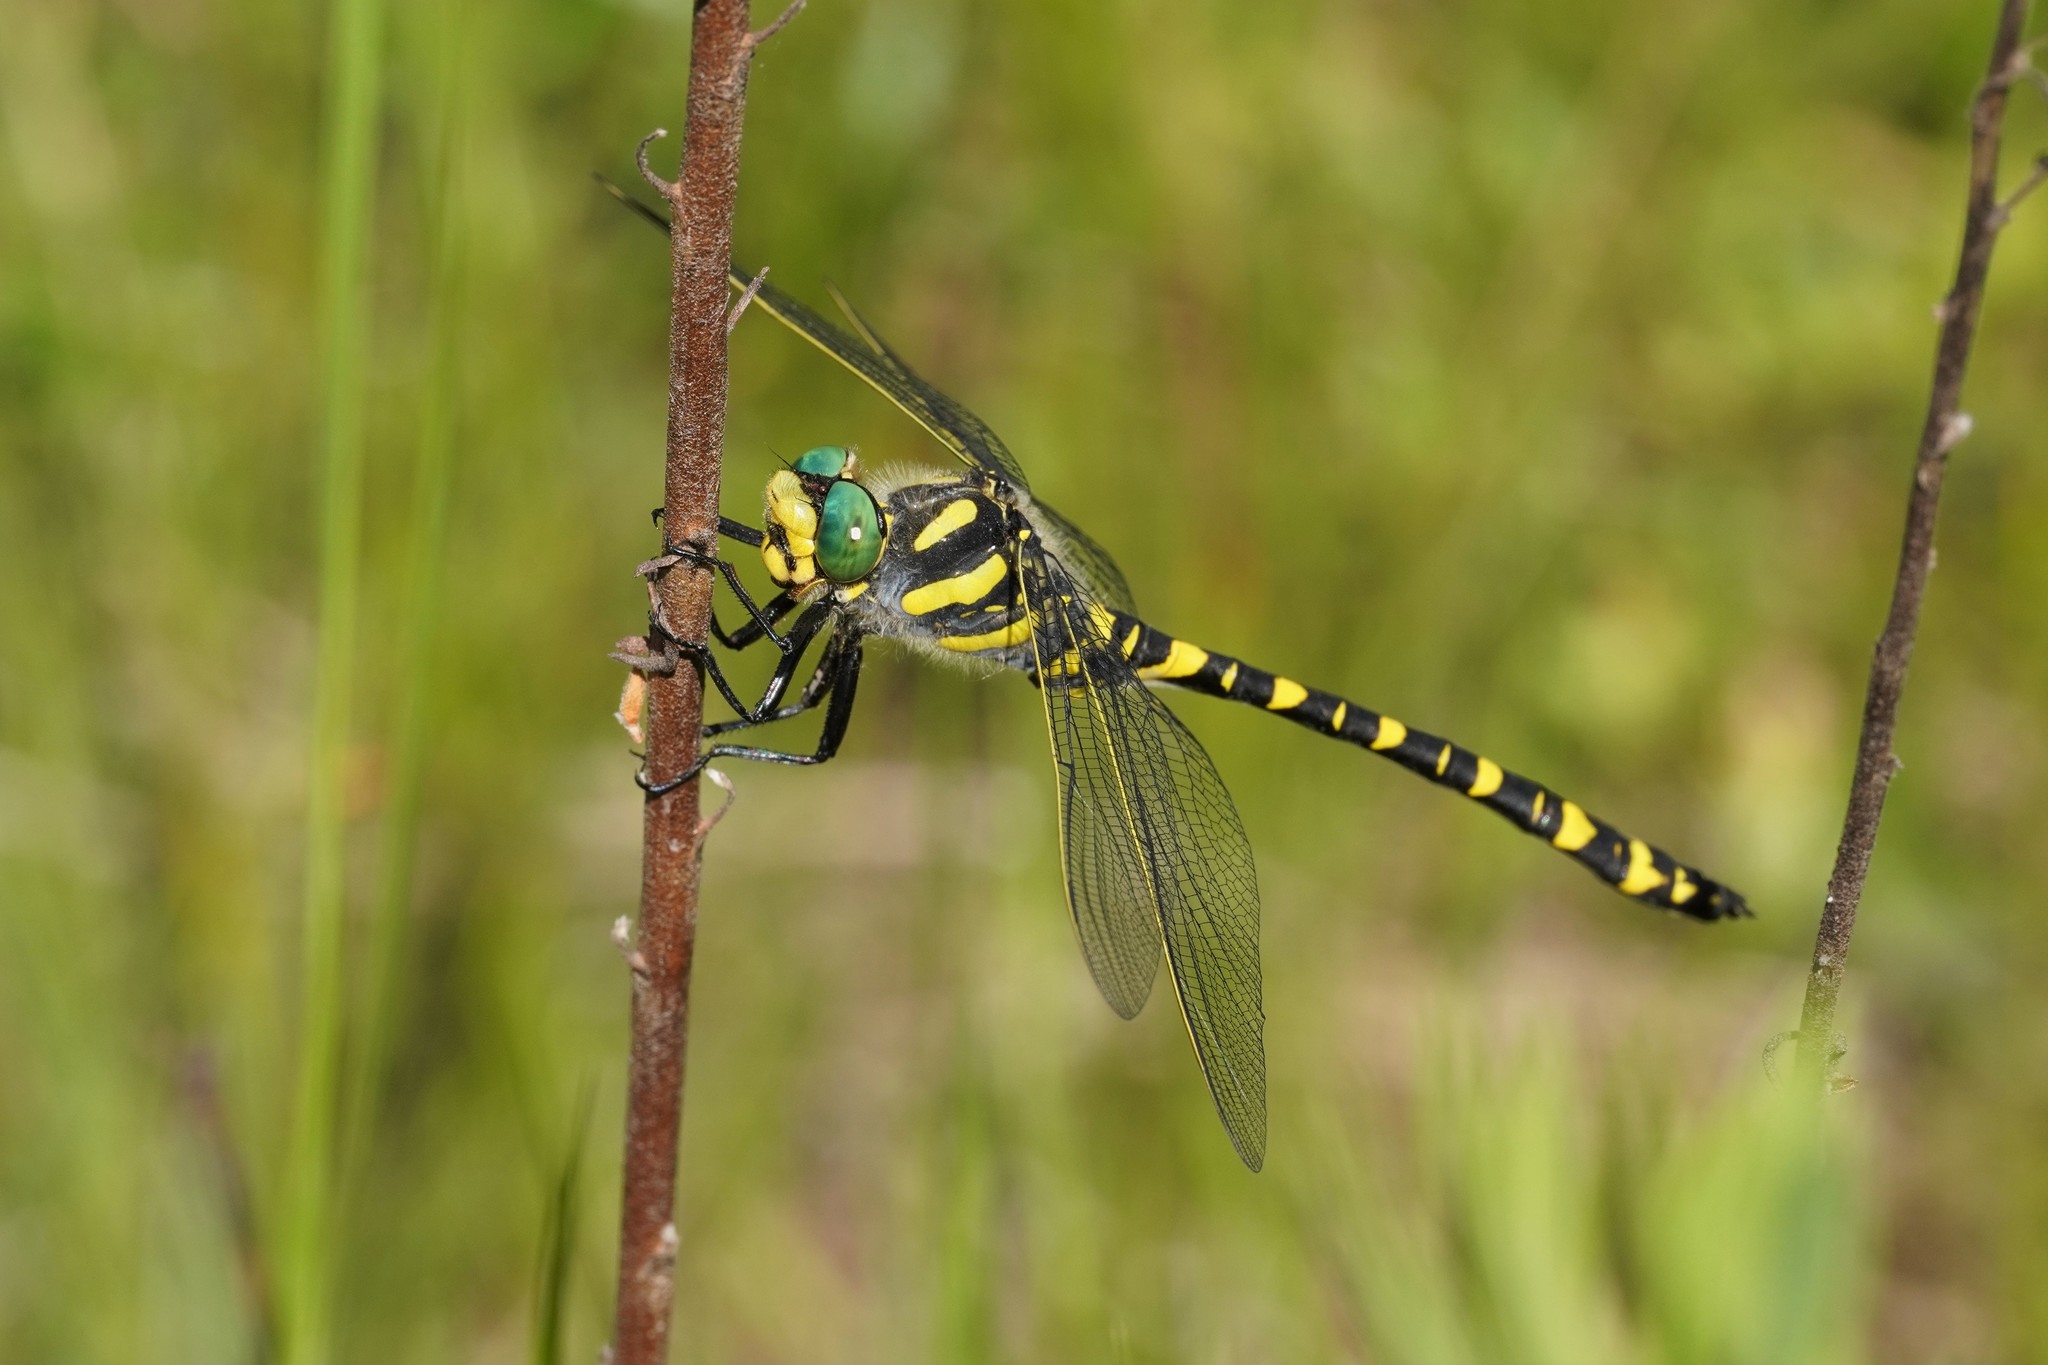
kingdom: Animalia
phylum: Arthropoda
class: Insecta
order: Odonata
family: Cordulegastridae
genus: Cordulegaster
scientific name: Cordulegaster boltonii
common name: Golden-ringed dragonfly
